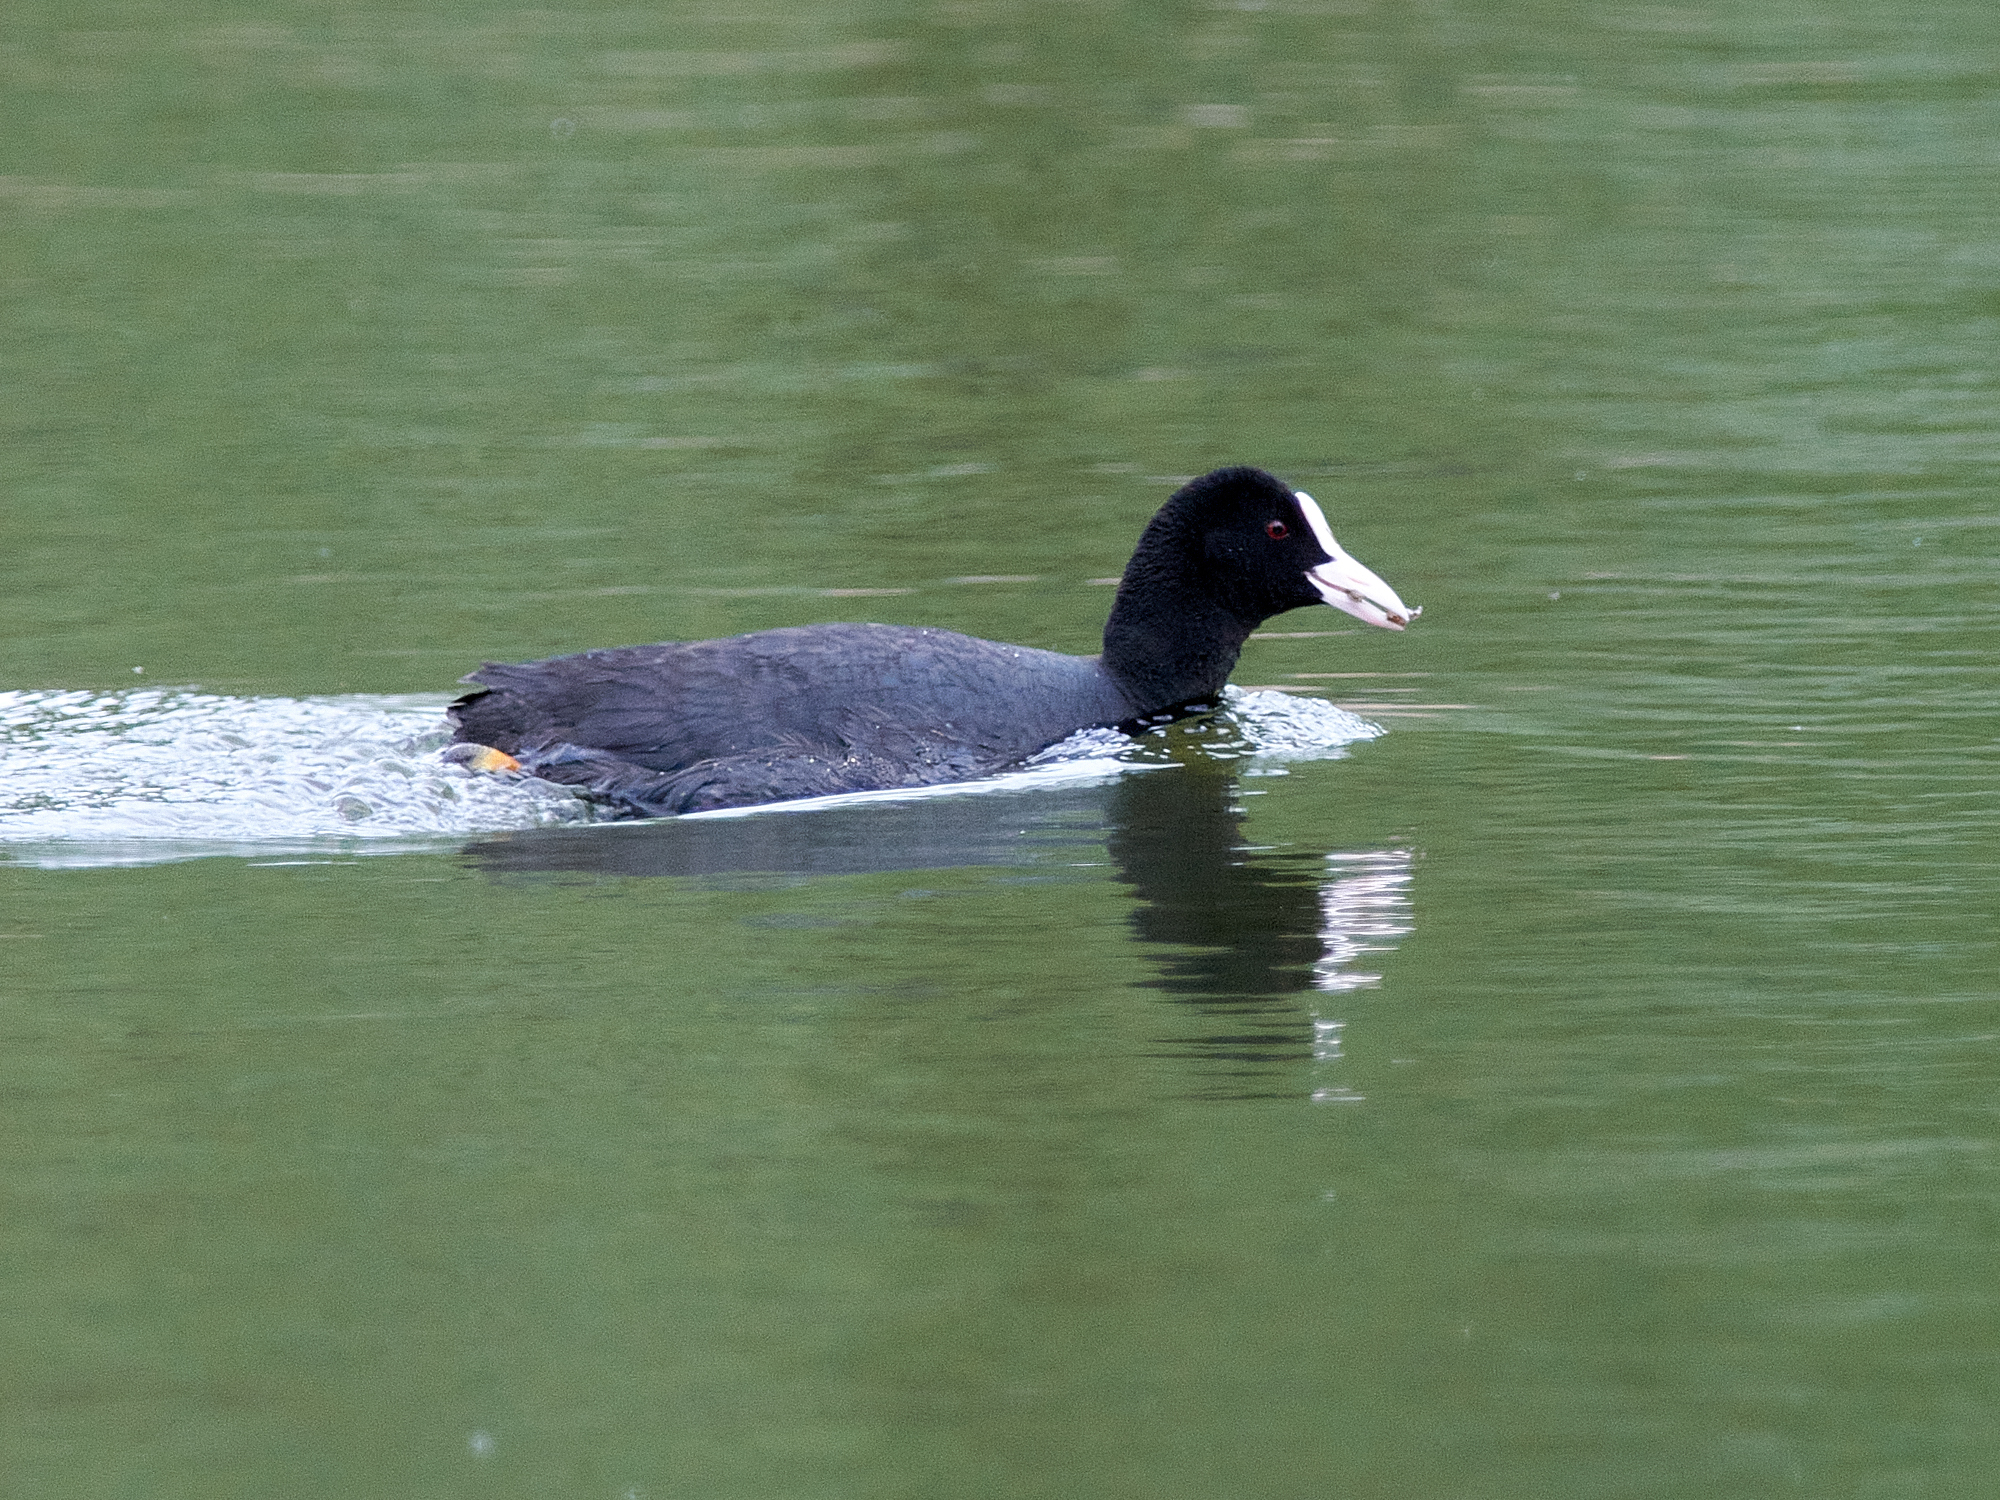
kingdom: Animalia
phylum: Chordata
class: Aves
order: Gruiformes
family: Rallidae
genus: Fulica
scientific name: Fulica atra
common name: Eurasian coot
